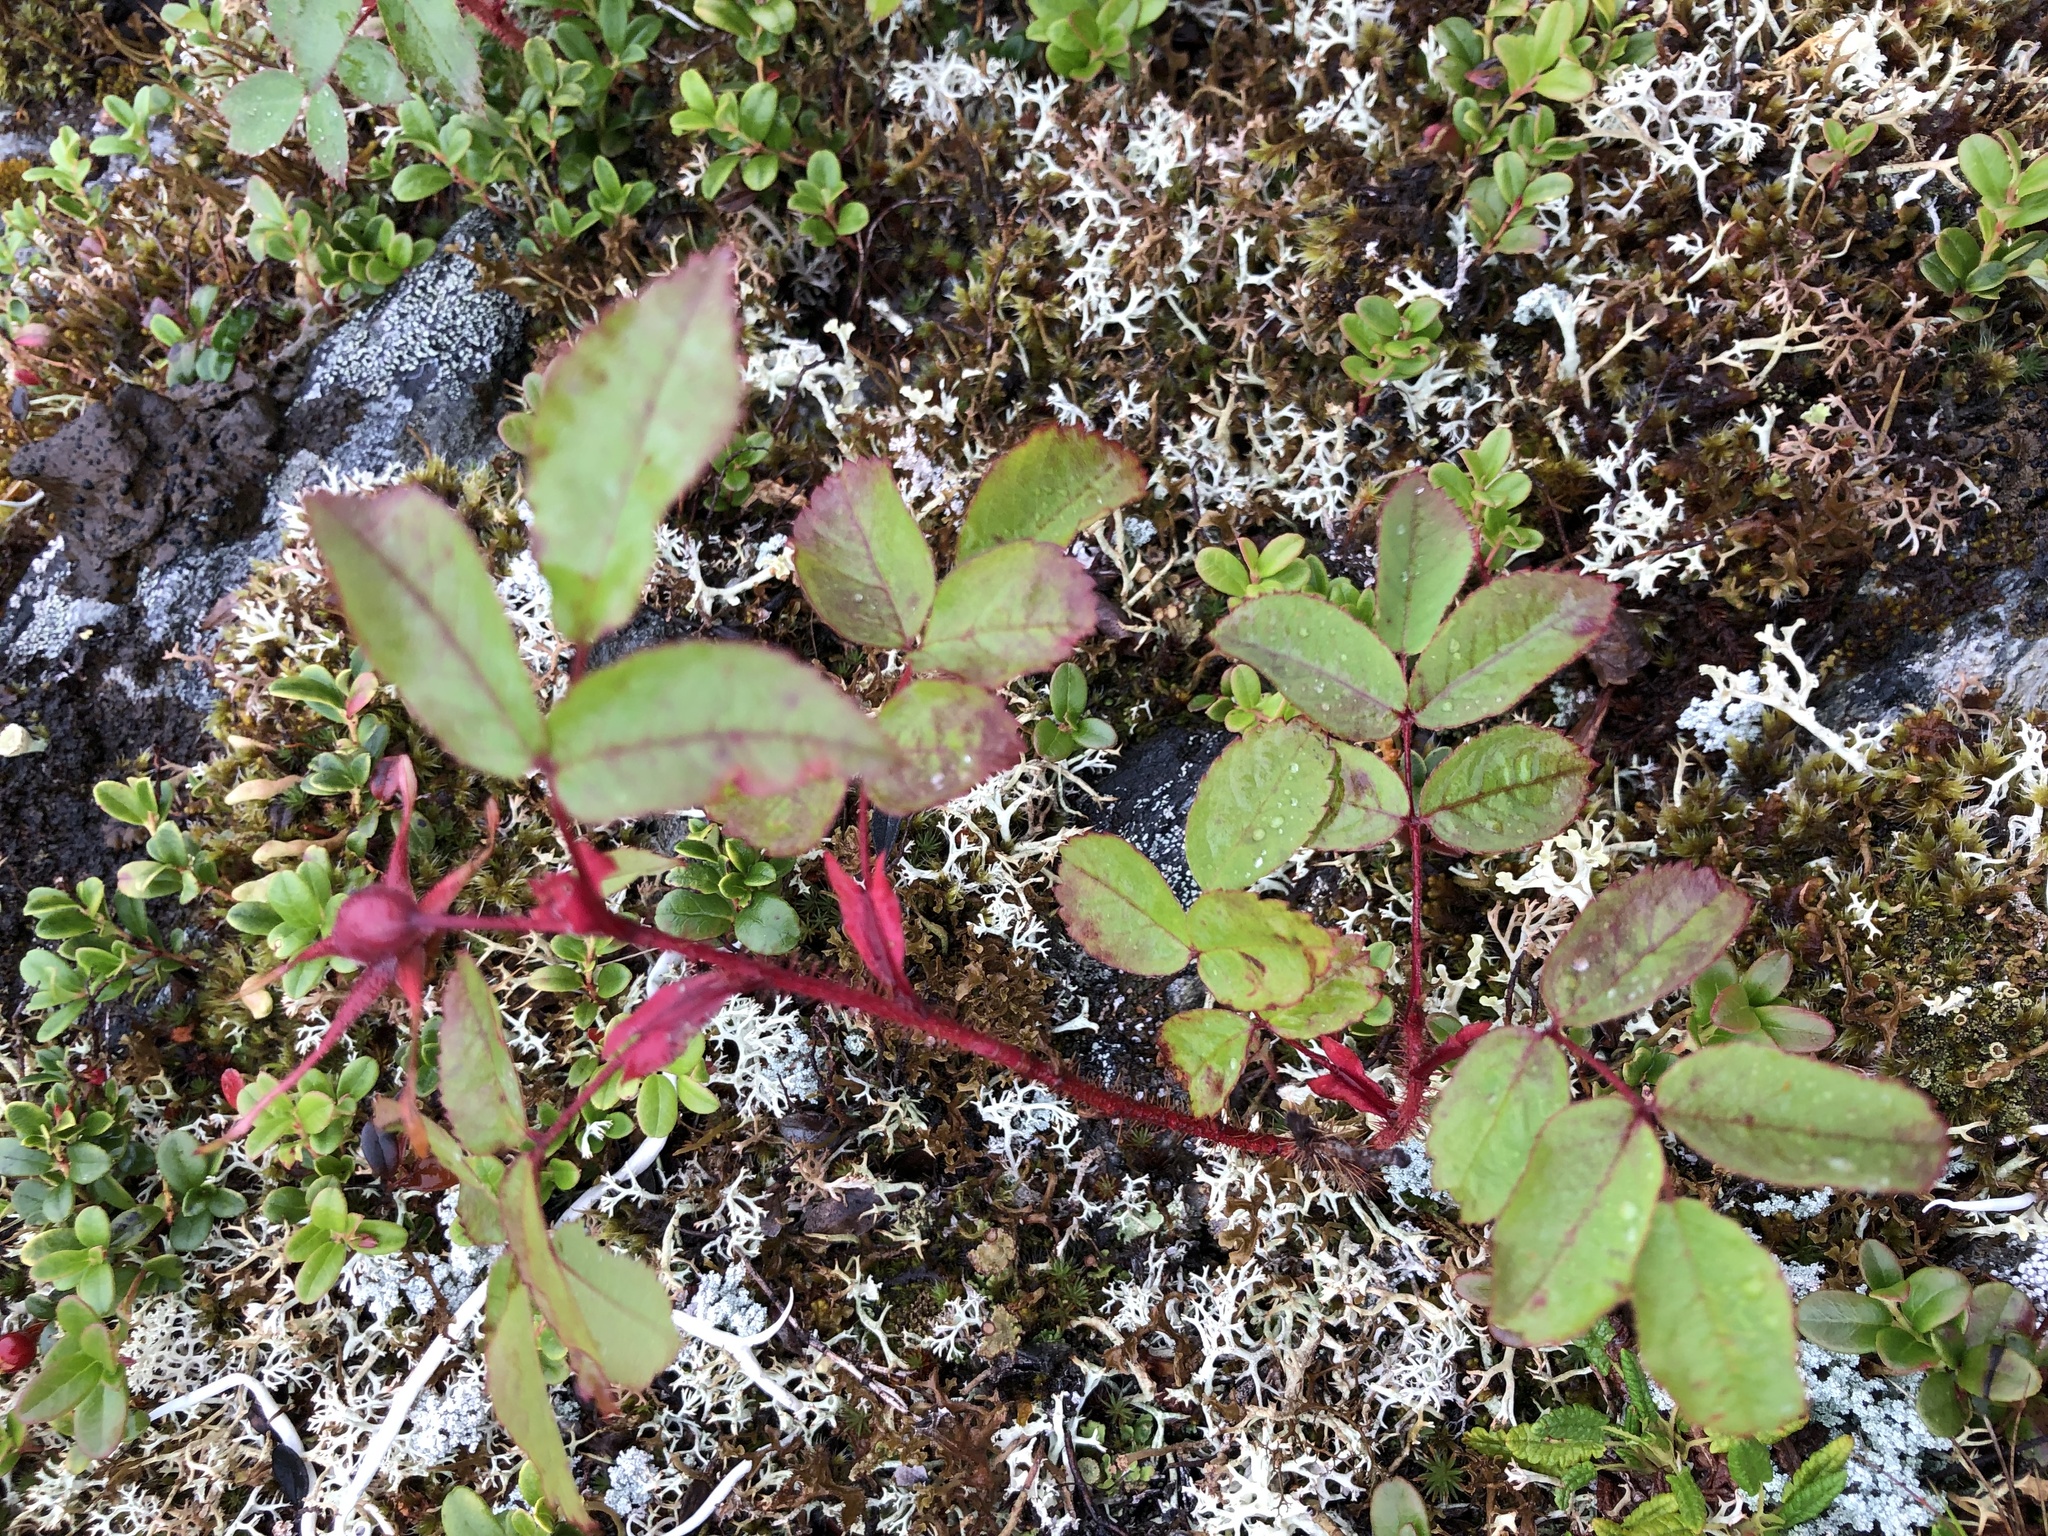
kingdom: Plantae
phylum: Tracheophyta
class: Magnoliopsida
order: Rosales
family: Rosaceae
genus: Rosa
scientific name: Rosa acicularis
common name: Prickly rose
